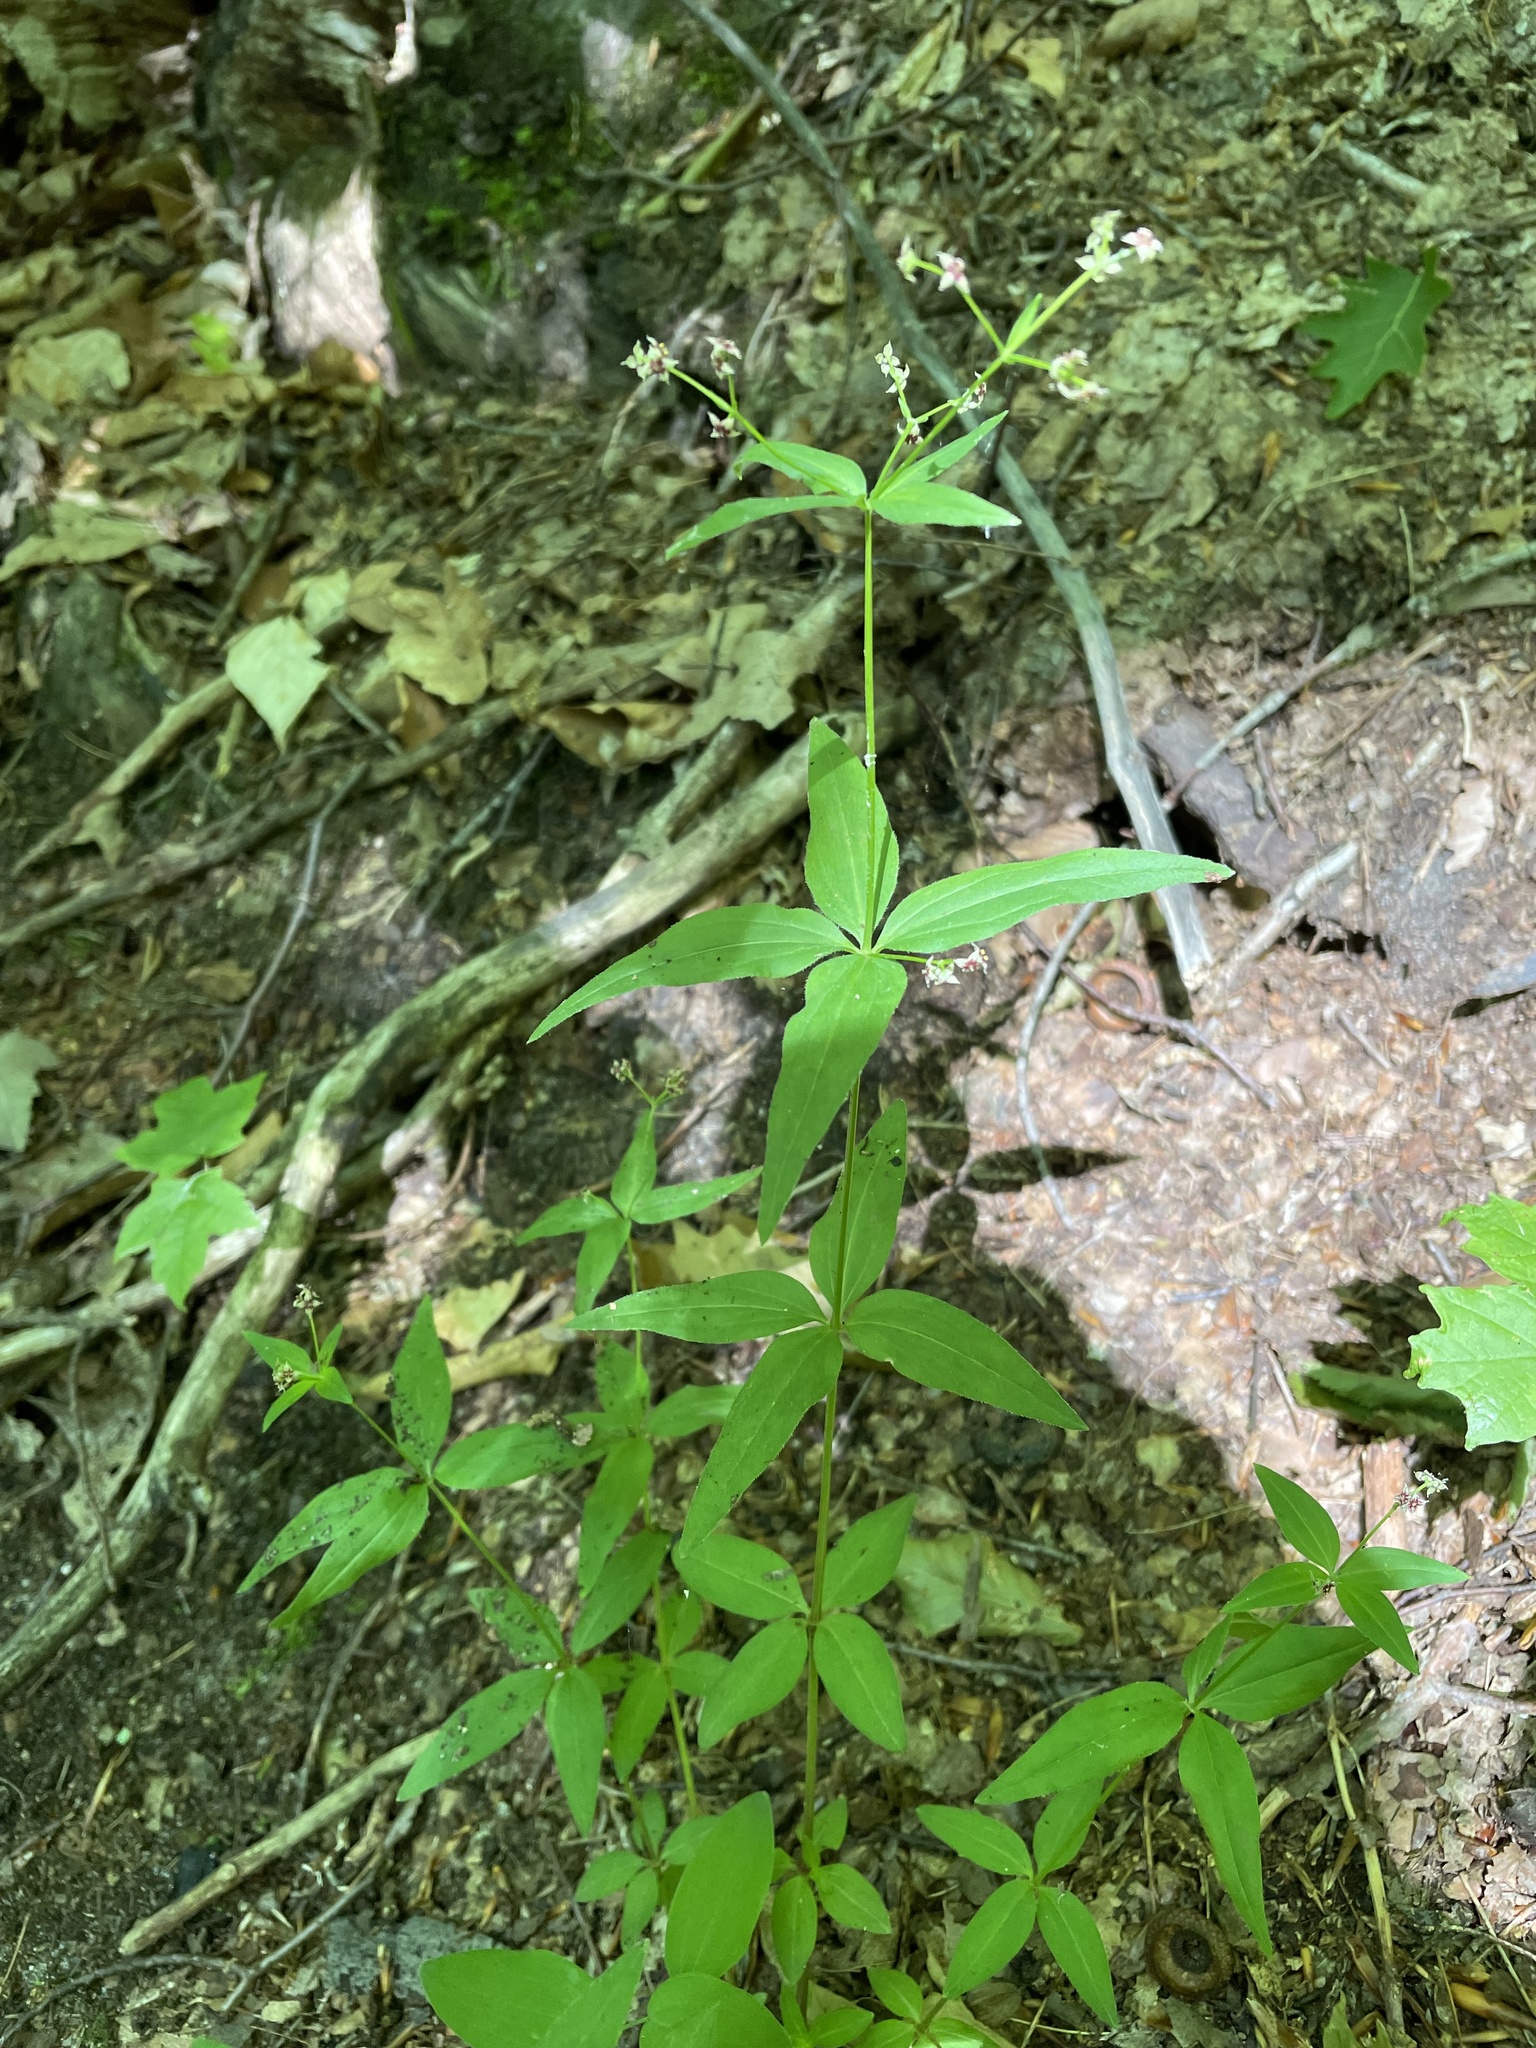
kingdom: Plantae
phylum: Tracheophyta
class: Magnoliopsida
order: Gentianales
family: Rubiaceae
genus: Galium
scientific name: Galium lanceolatum
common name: Lance-leaved wild licorice
